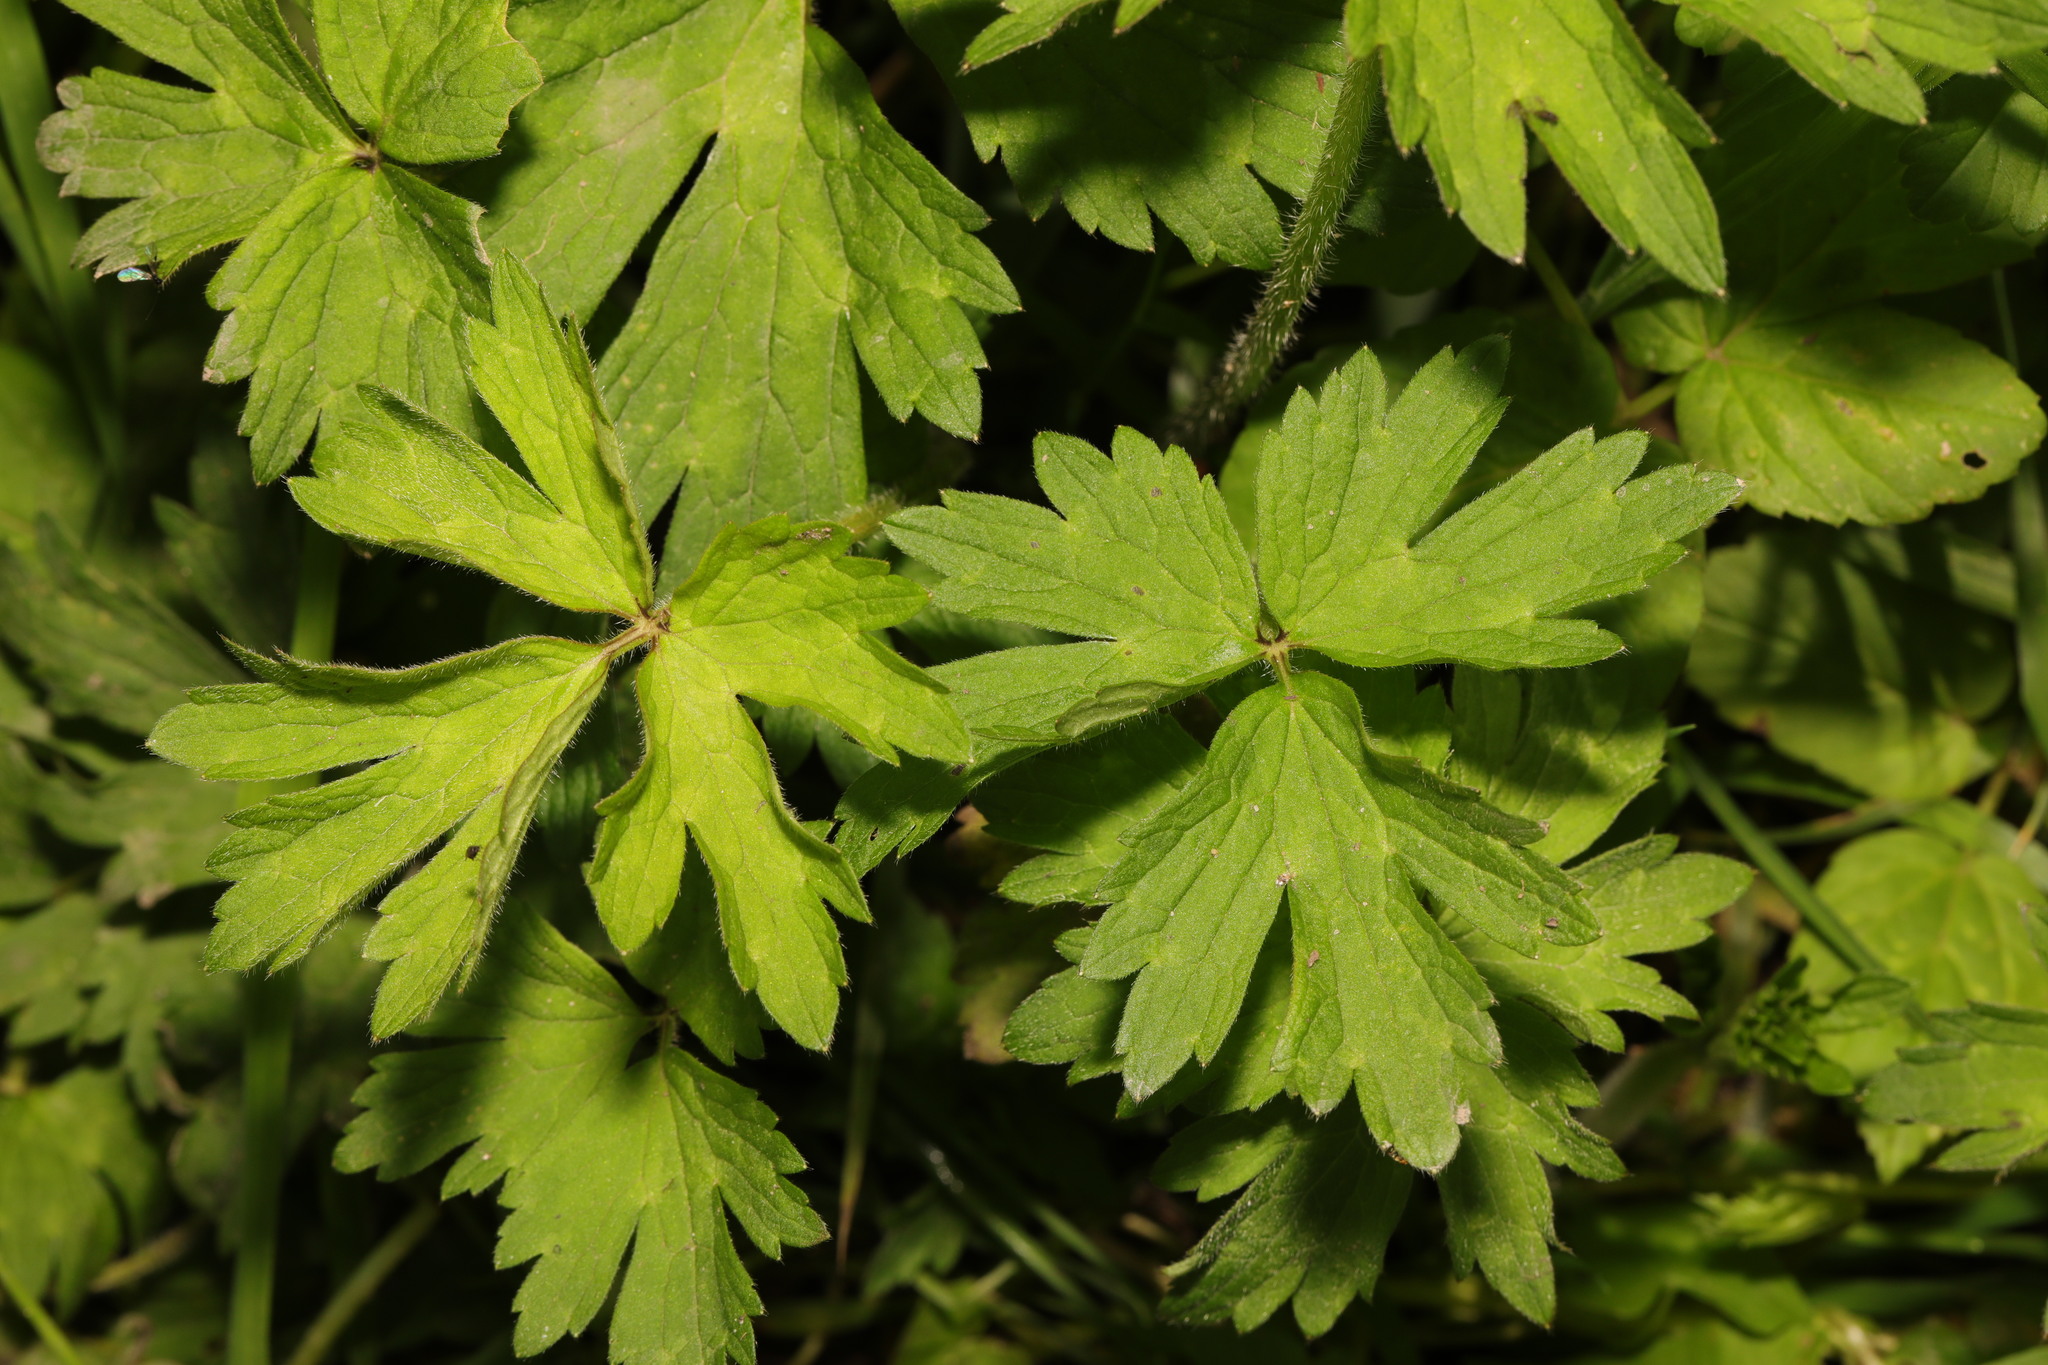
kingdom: Plantae
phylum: Tracheophyta
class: Magnoliopsida
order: Ranunculales
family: Ranunculaceae
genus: Ranunculus
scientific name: Ranunculus repens
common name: Creeping buttercup
